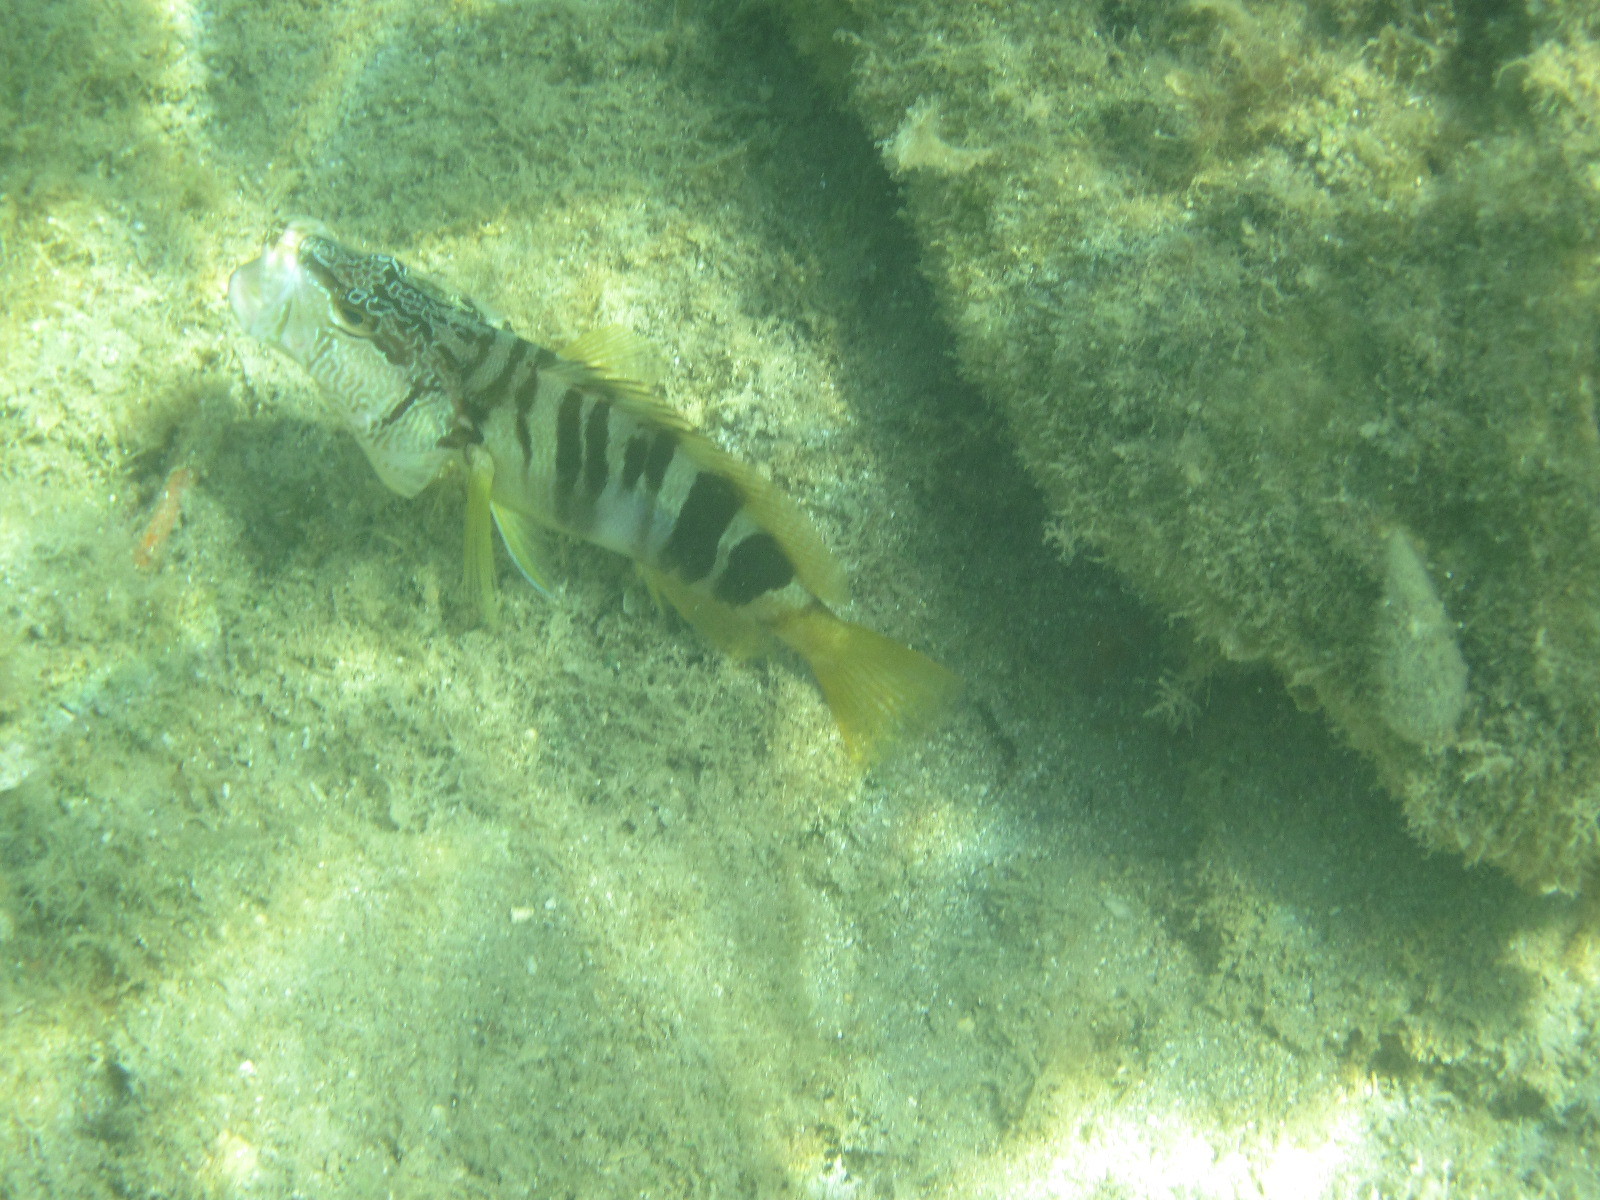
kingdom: Animalia
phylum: Chordata
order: Perciformes
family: Serranidae
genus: Serranus
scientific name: Serranus scriba
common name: Painted comber
